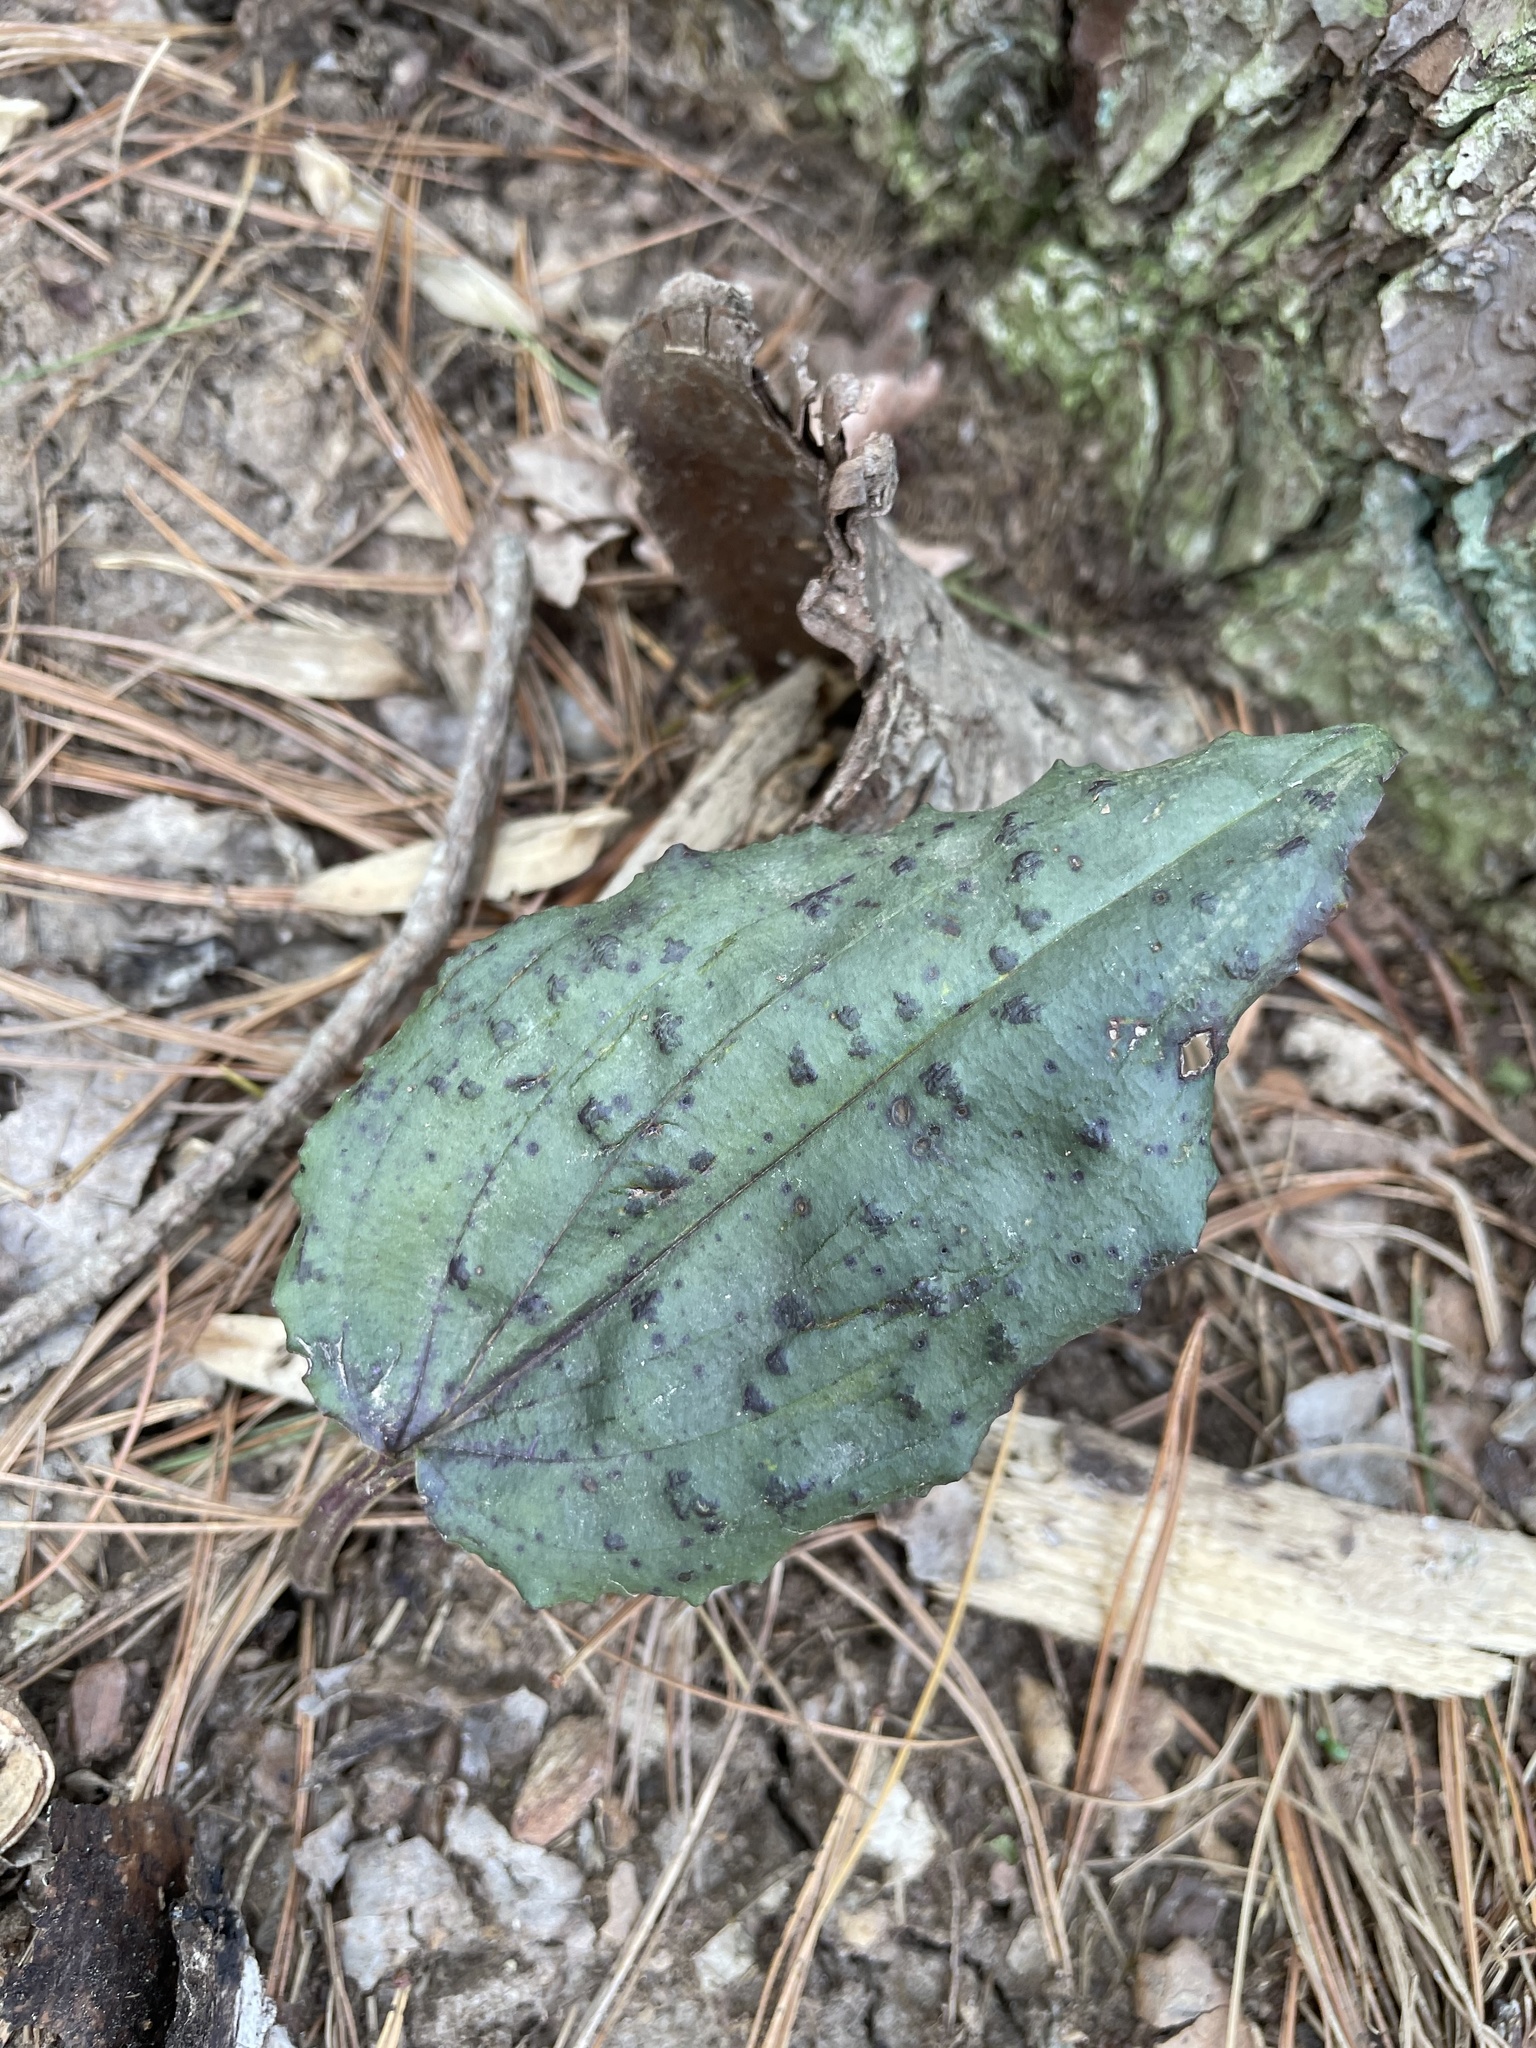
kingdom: Plantae
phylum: Tracheophyta
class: Liliopsida
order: Asparagales
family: Orchidaceae
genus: Tipularia
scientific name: Tipularia discolor
